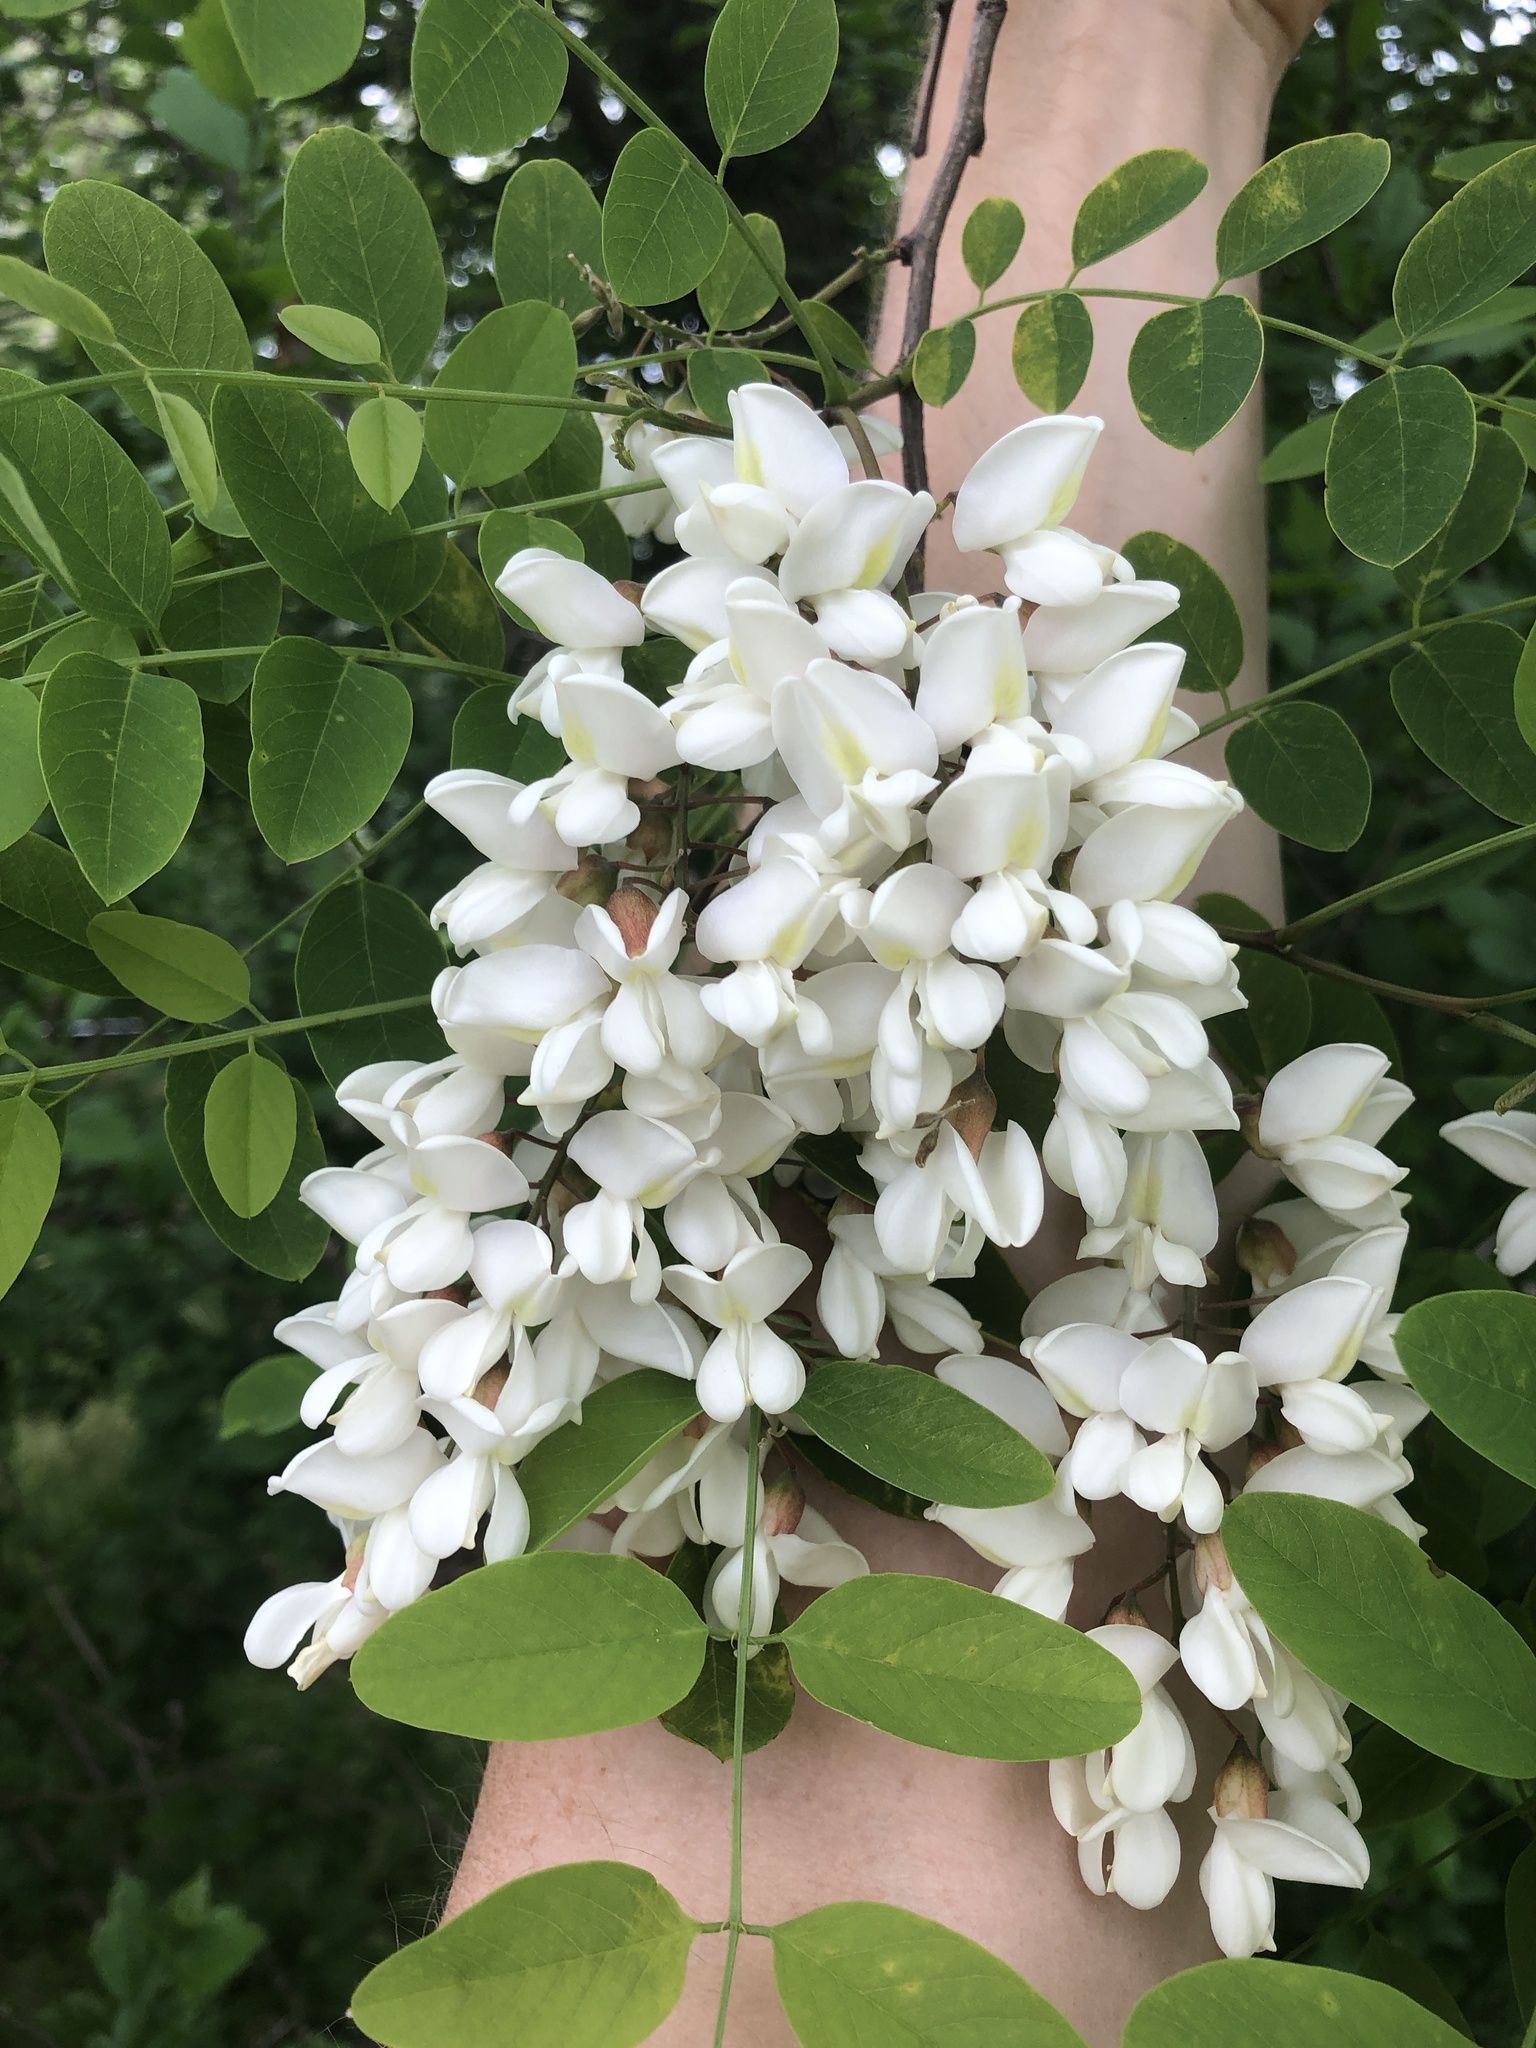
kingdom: Plantae
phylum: Tracheophyta
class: Magnoliopsida
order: Fabales
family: Fabaceae
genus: Robinia
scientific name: Robinia pseudoacacia
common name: Black locust
